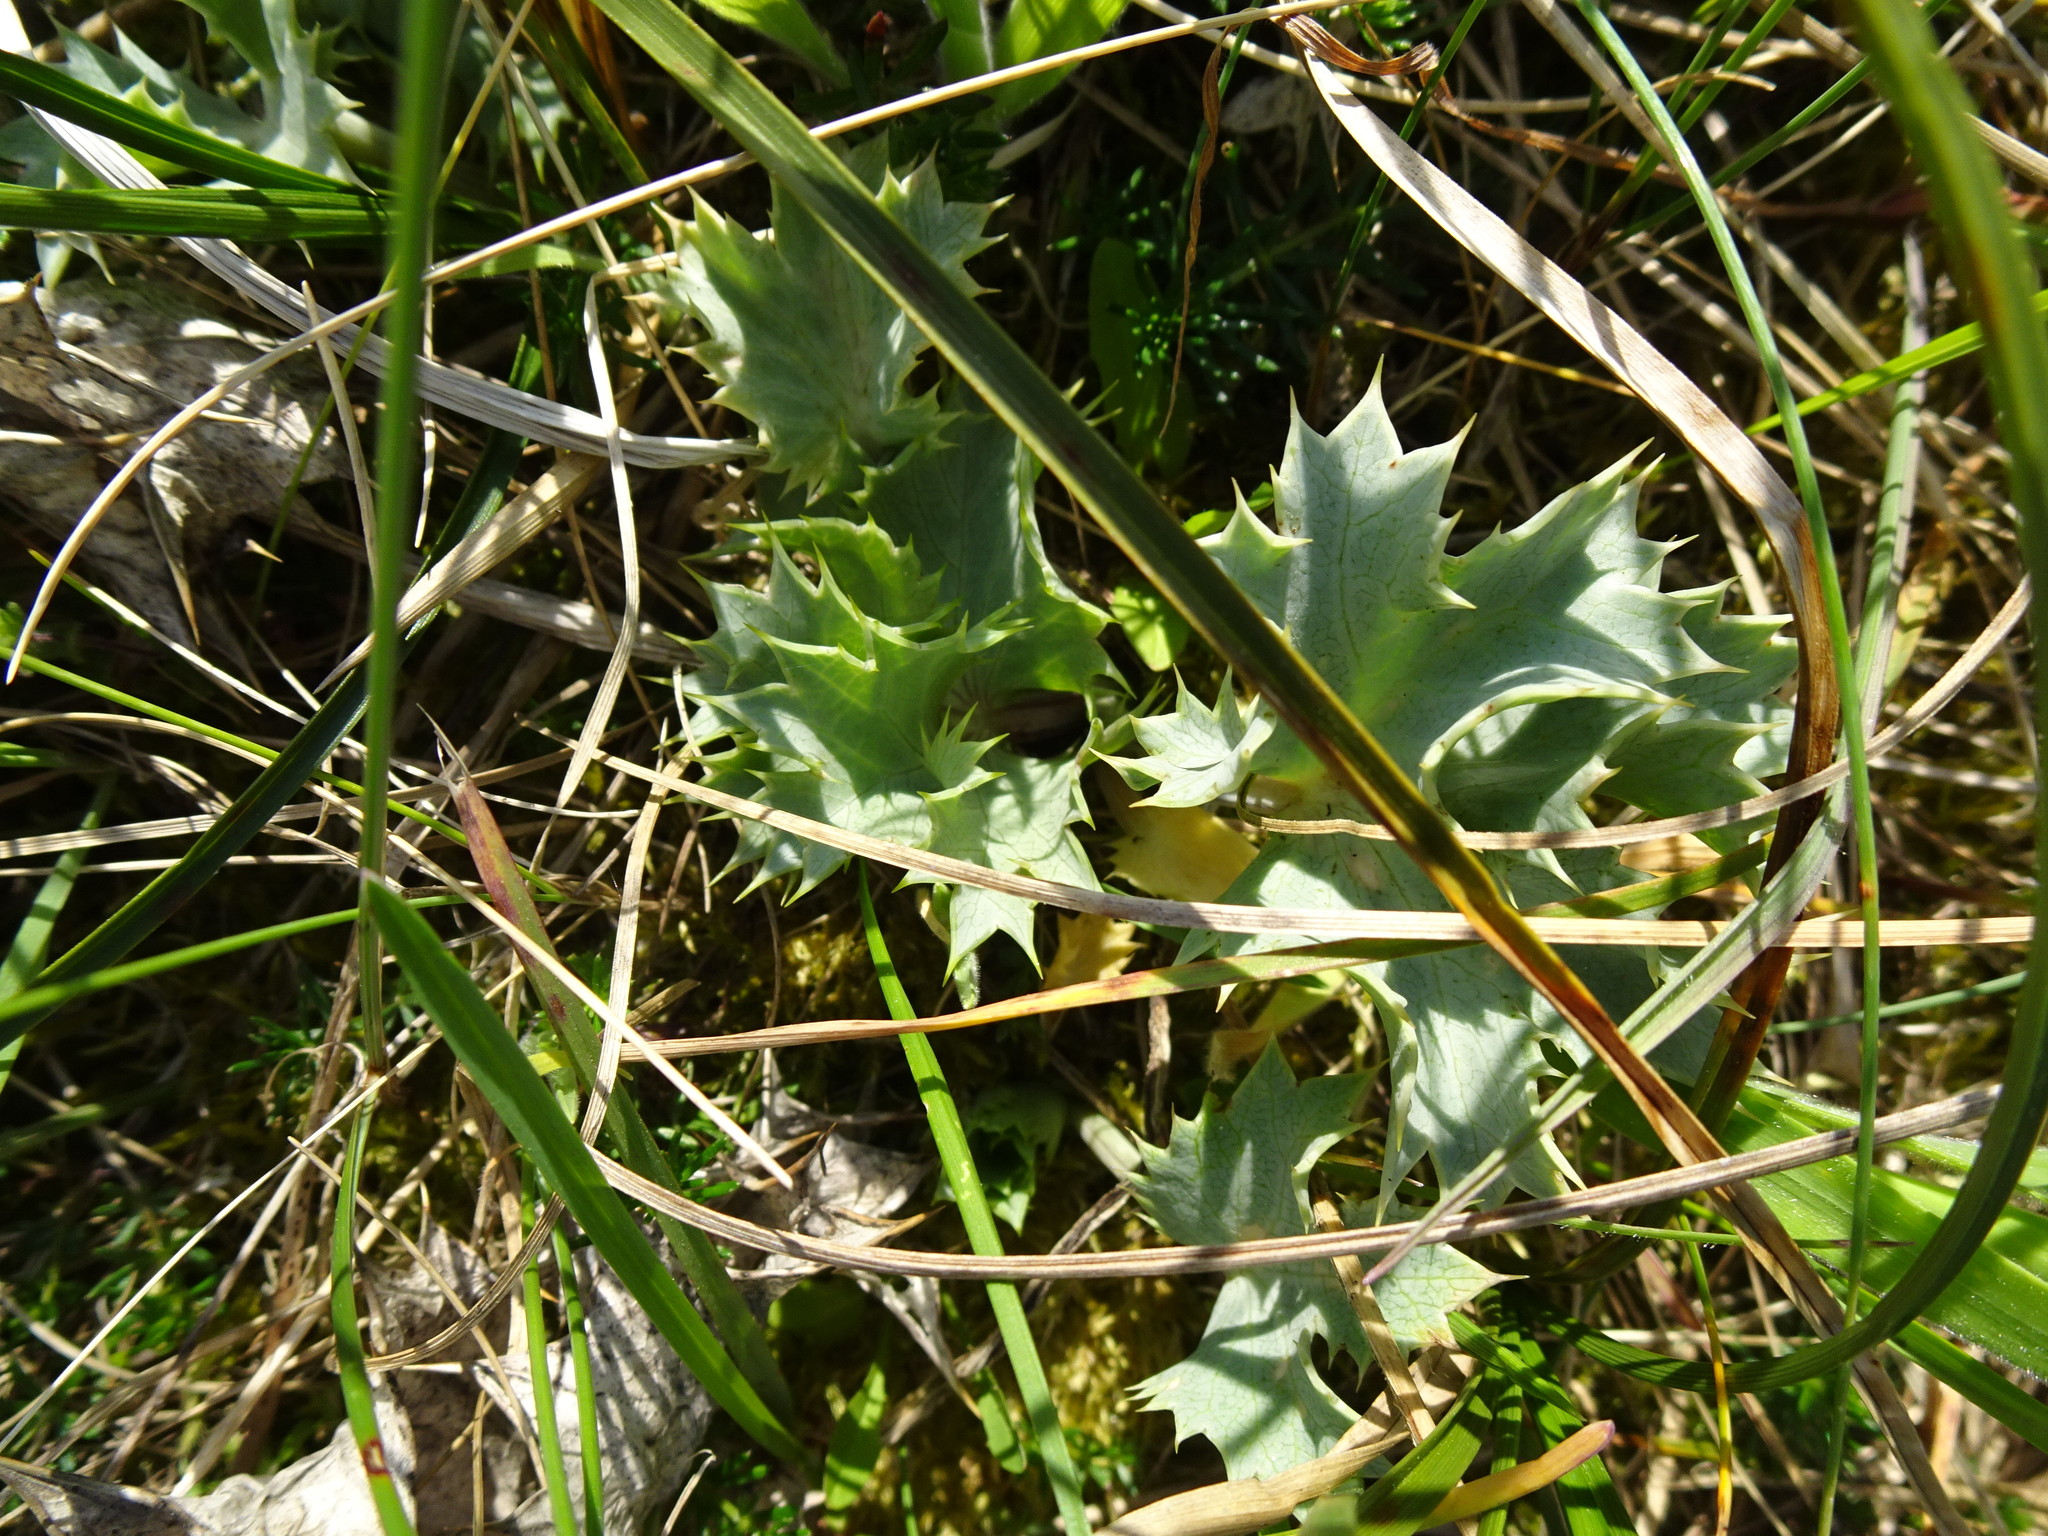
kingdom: Plantae
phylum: Tracheophyta
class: Magnoliopsida
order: Apiales
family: Apiaceae
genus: Eryngium
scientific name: Eryngium maritimum
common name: Sea-holly
